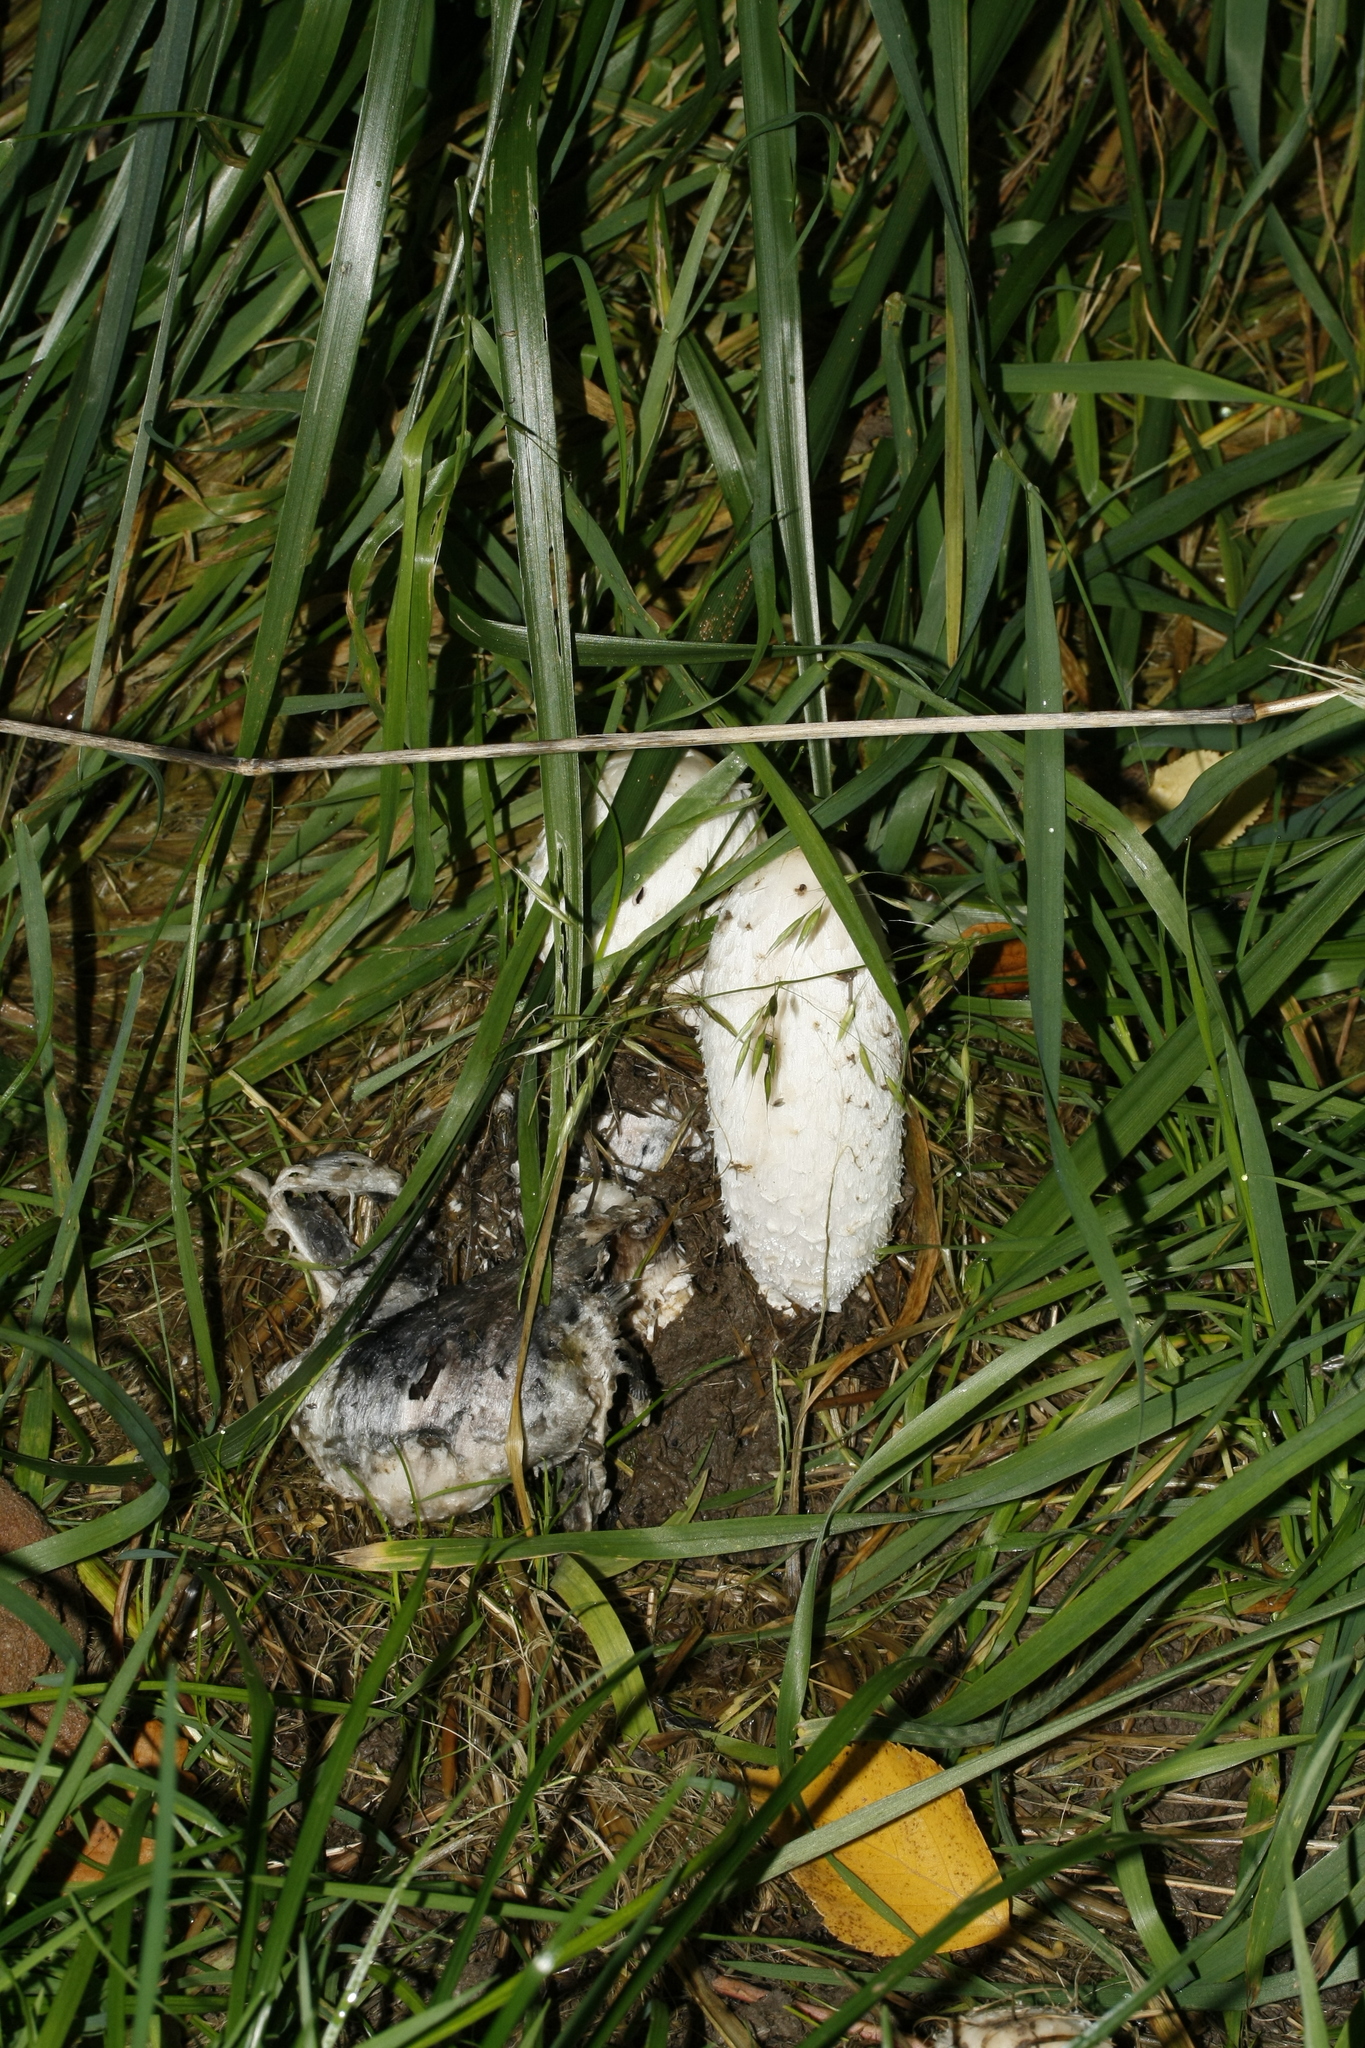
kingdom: Fungi
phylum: Basidiomycota
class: Agaricomycetes
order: Agaricales
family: Agaricaceae
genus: Coprinus
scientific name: Coprinus comatus
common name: Lawyer's wig
